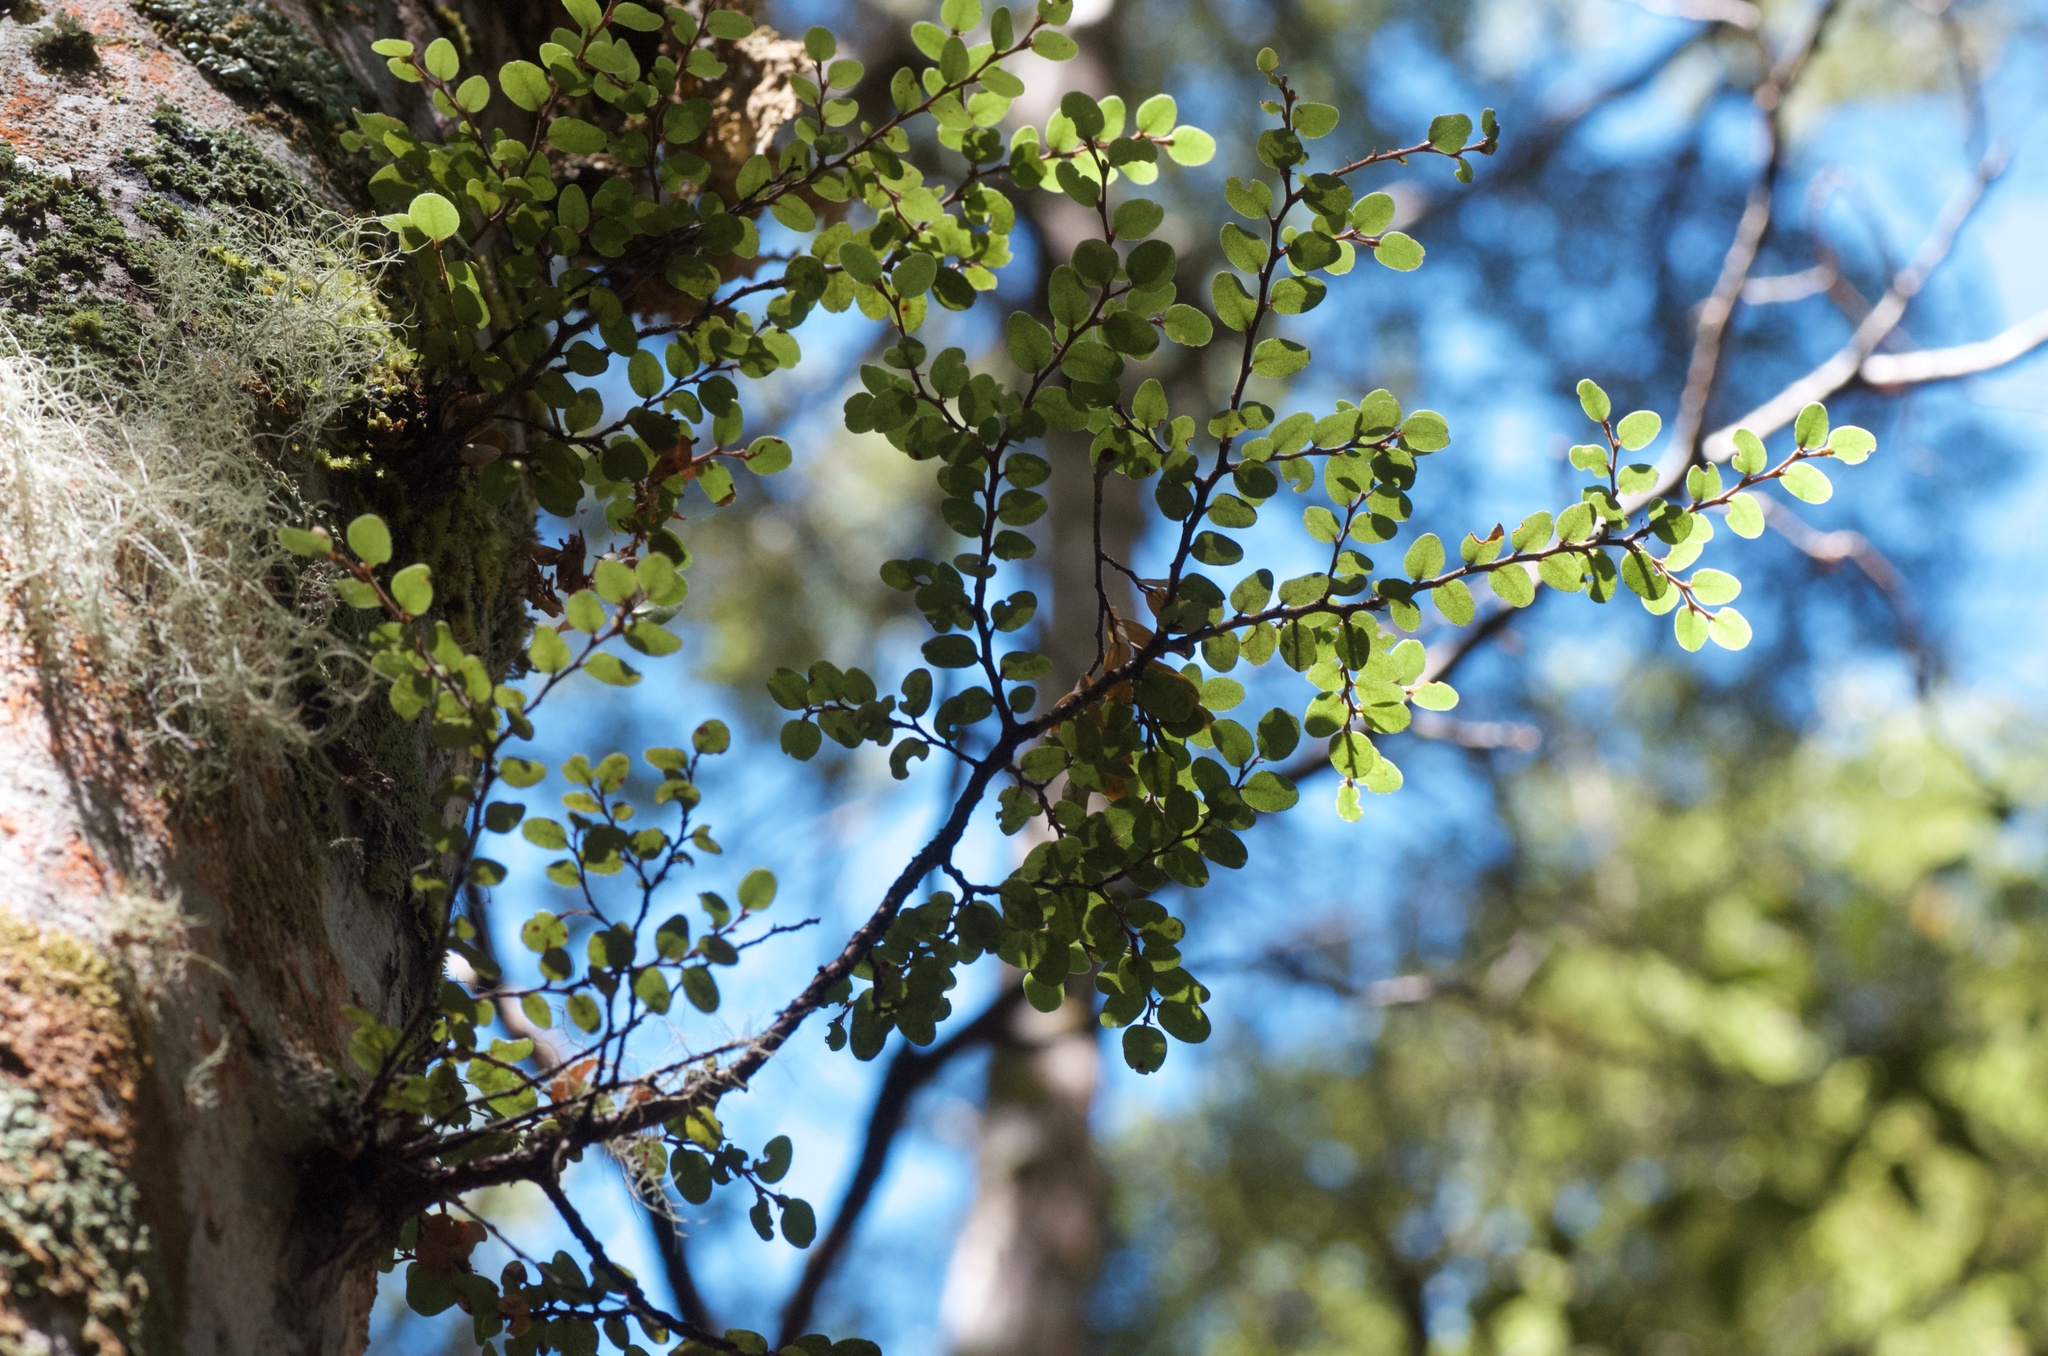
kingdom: Plantae
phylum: Tracheophyta
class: Magnoliopsida
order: Fagales
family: Nothofagaceae
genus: Nothofagus
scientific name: Nothofagus cliffortioides
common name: Mountain beech
